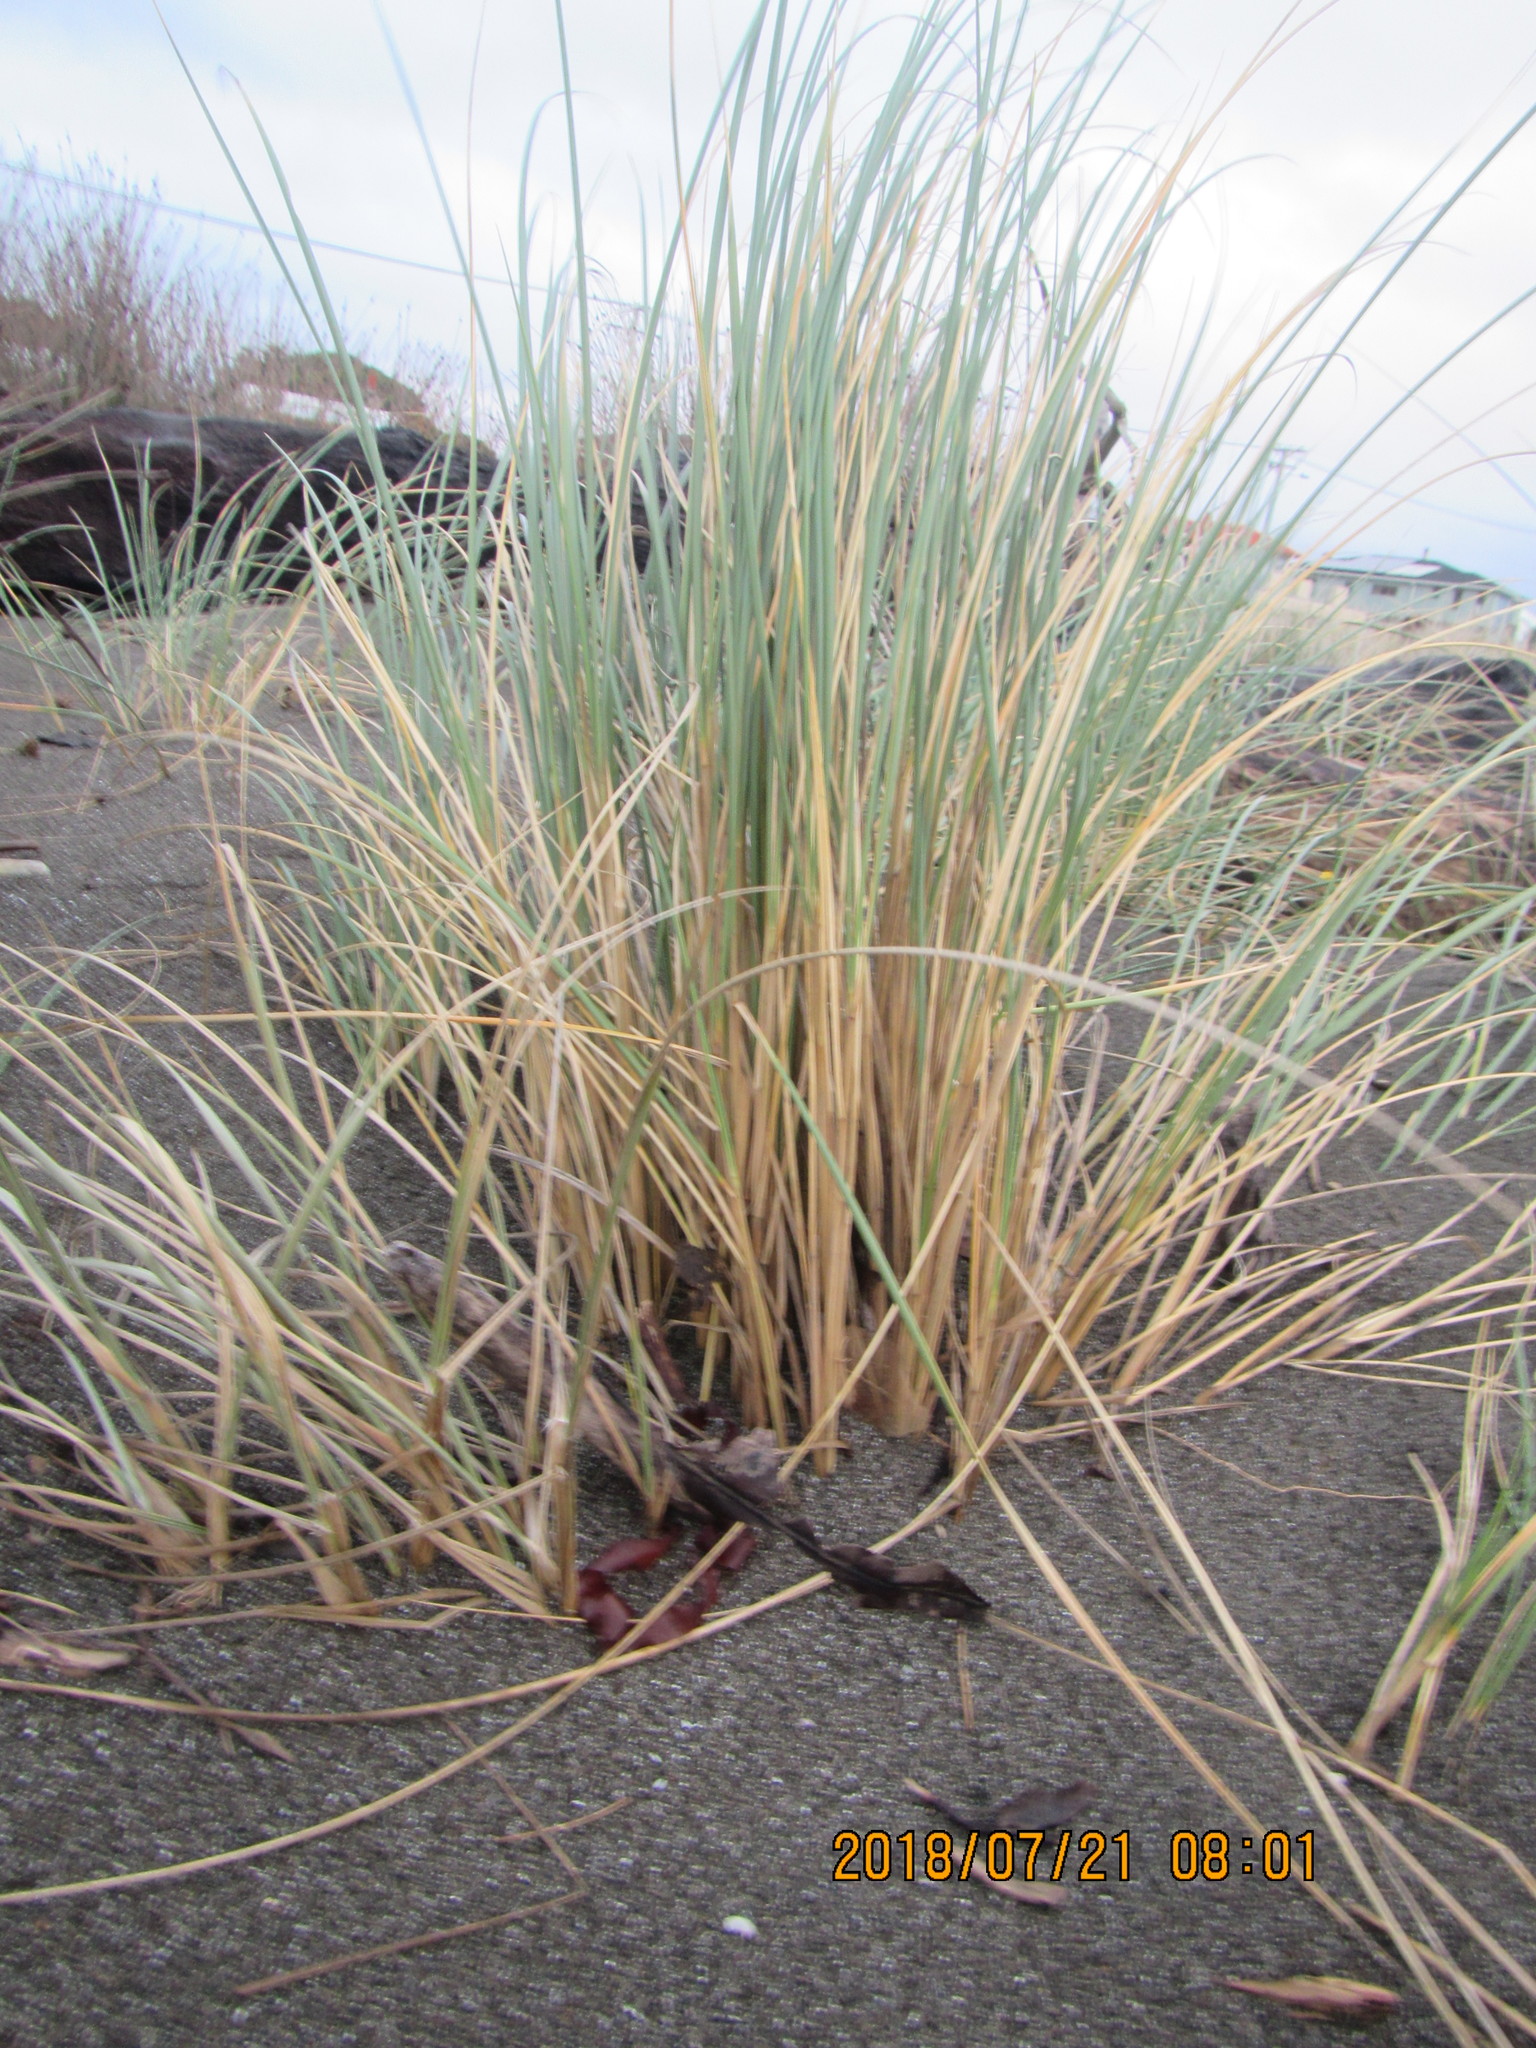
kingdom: Plantae
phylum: Tracheophyta
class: Liliopsida
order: Poales
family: Poaceae
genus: Calamagrostis
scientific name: Calamagrostis arenaria
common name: European beachgrass
